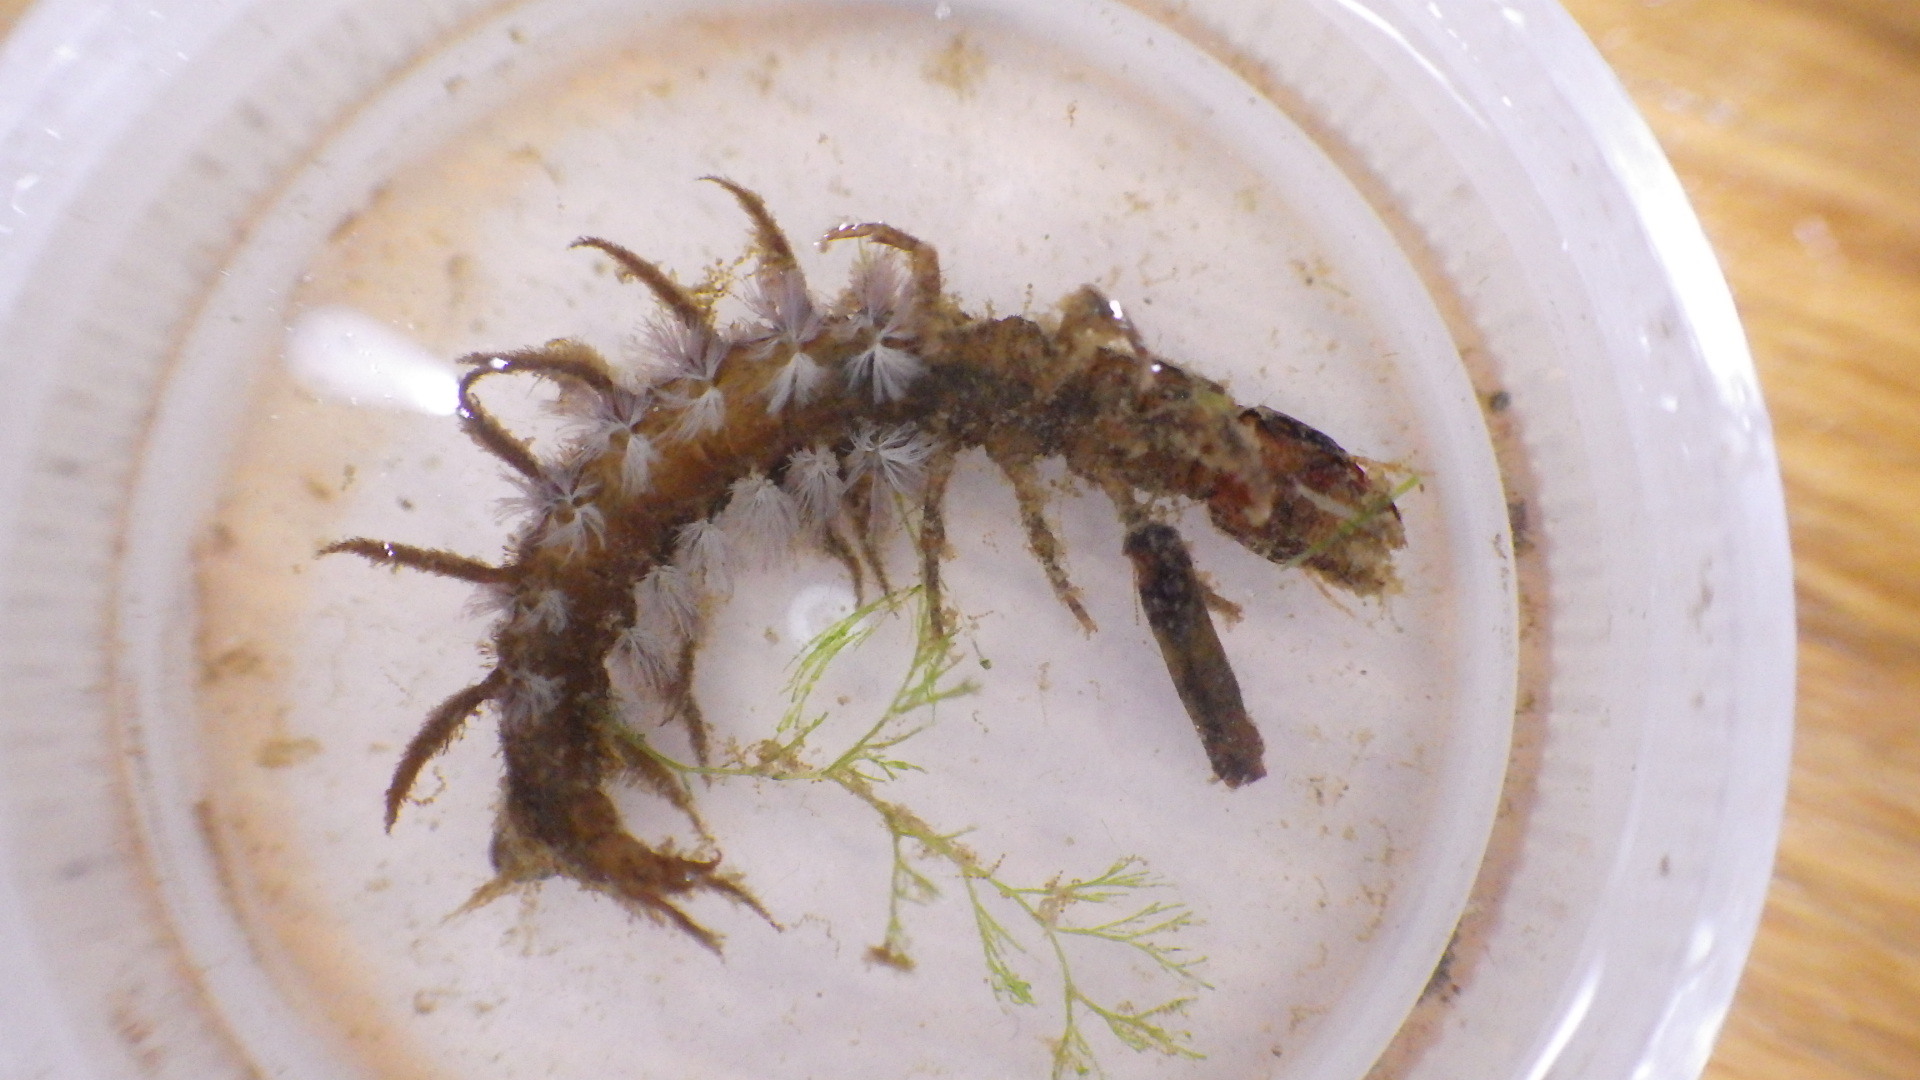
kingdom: Animalia
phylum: Arthropoda
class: Insecta
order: Megaloptera
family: Corydalidae
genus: Corydalus
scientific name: Corydalus cornutus
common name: Dobsonfly
